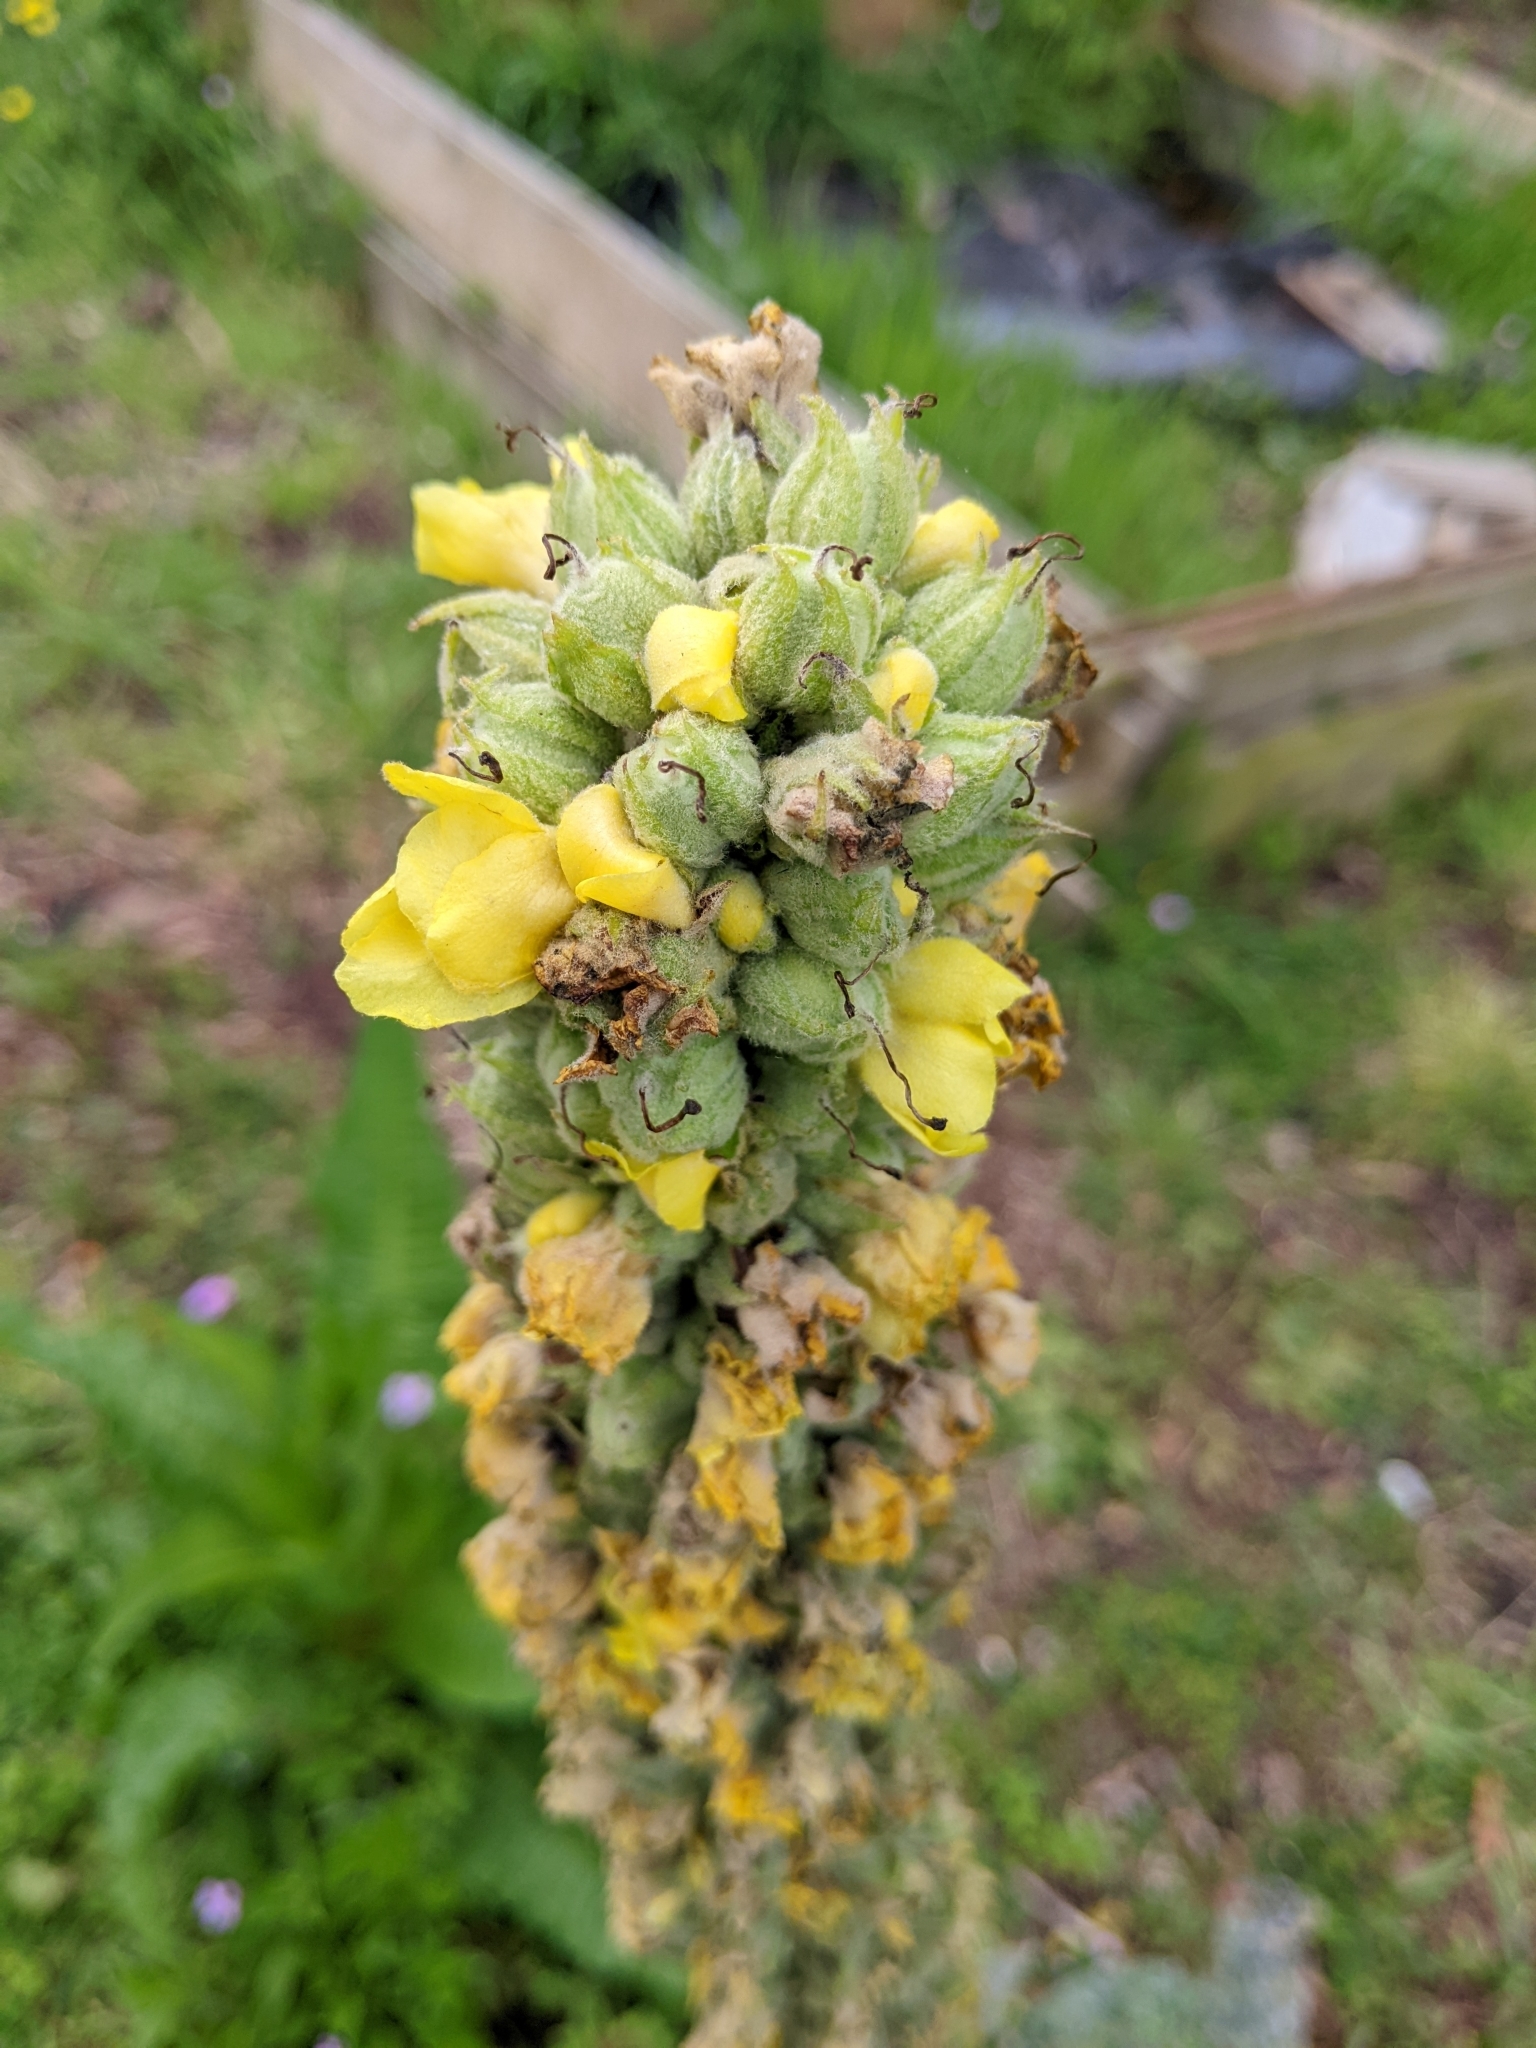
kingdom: Plantae
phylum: Tracheophyta
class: Magnoliopsida
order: Lamiales
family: Scrophulariaceae
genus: Verbascum
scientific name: Verbascum thapsus
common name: Common mullein
